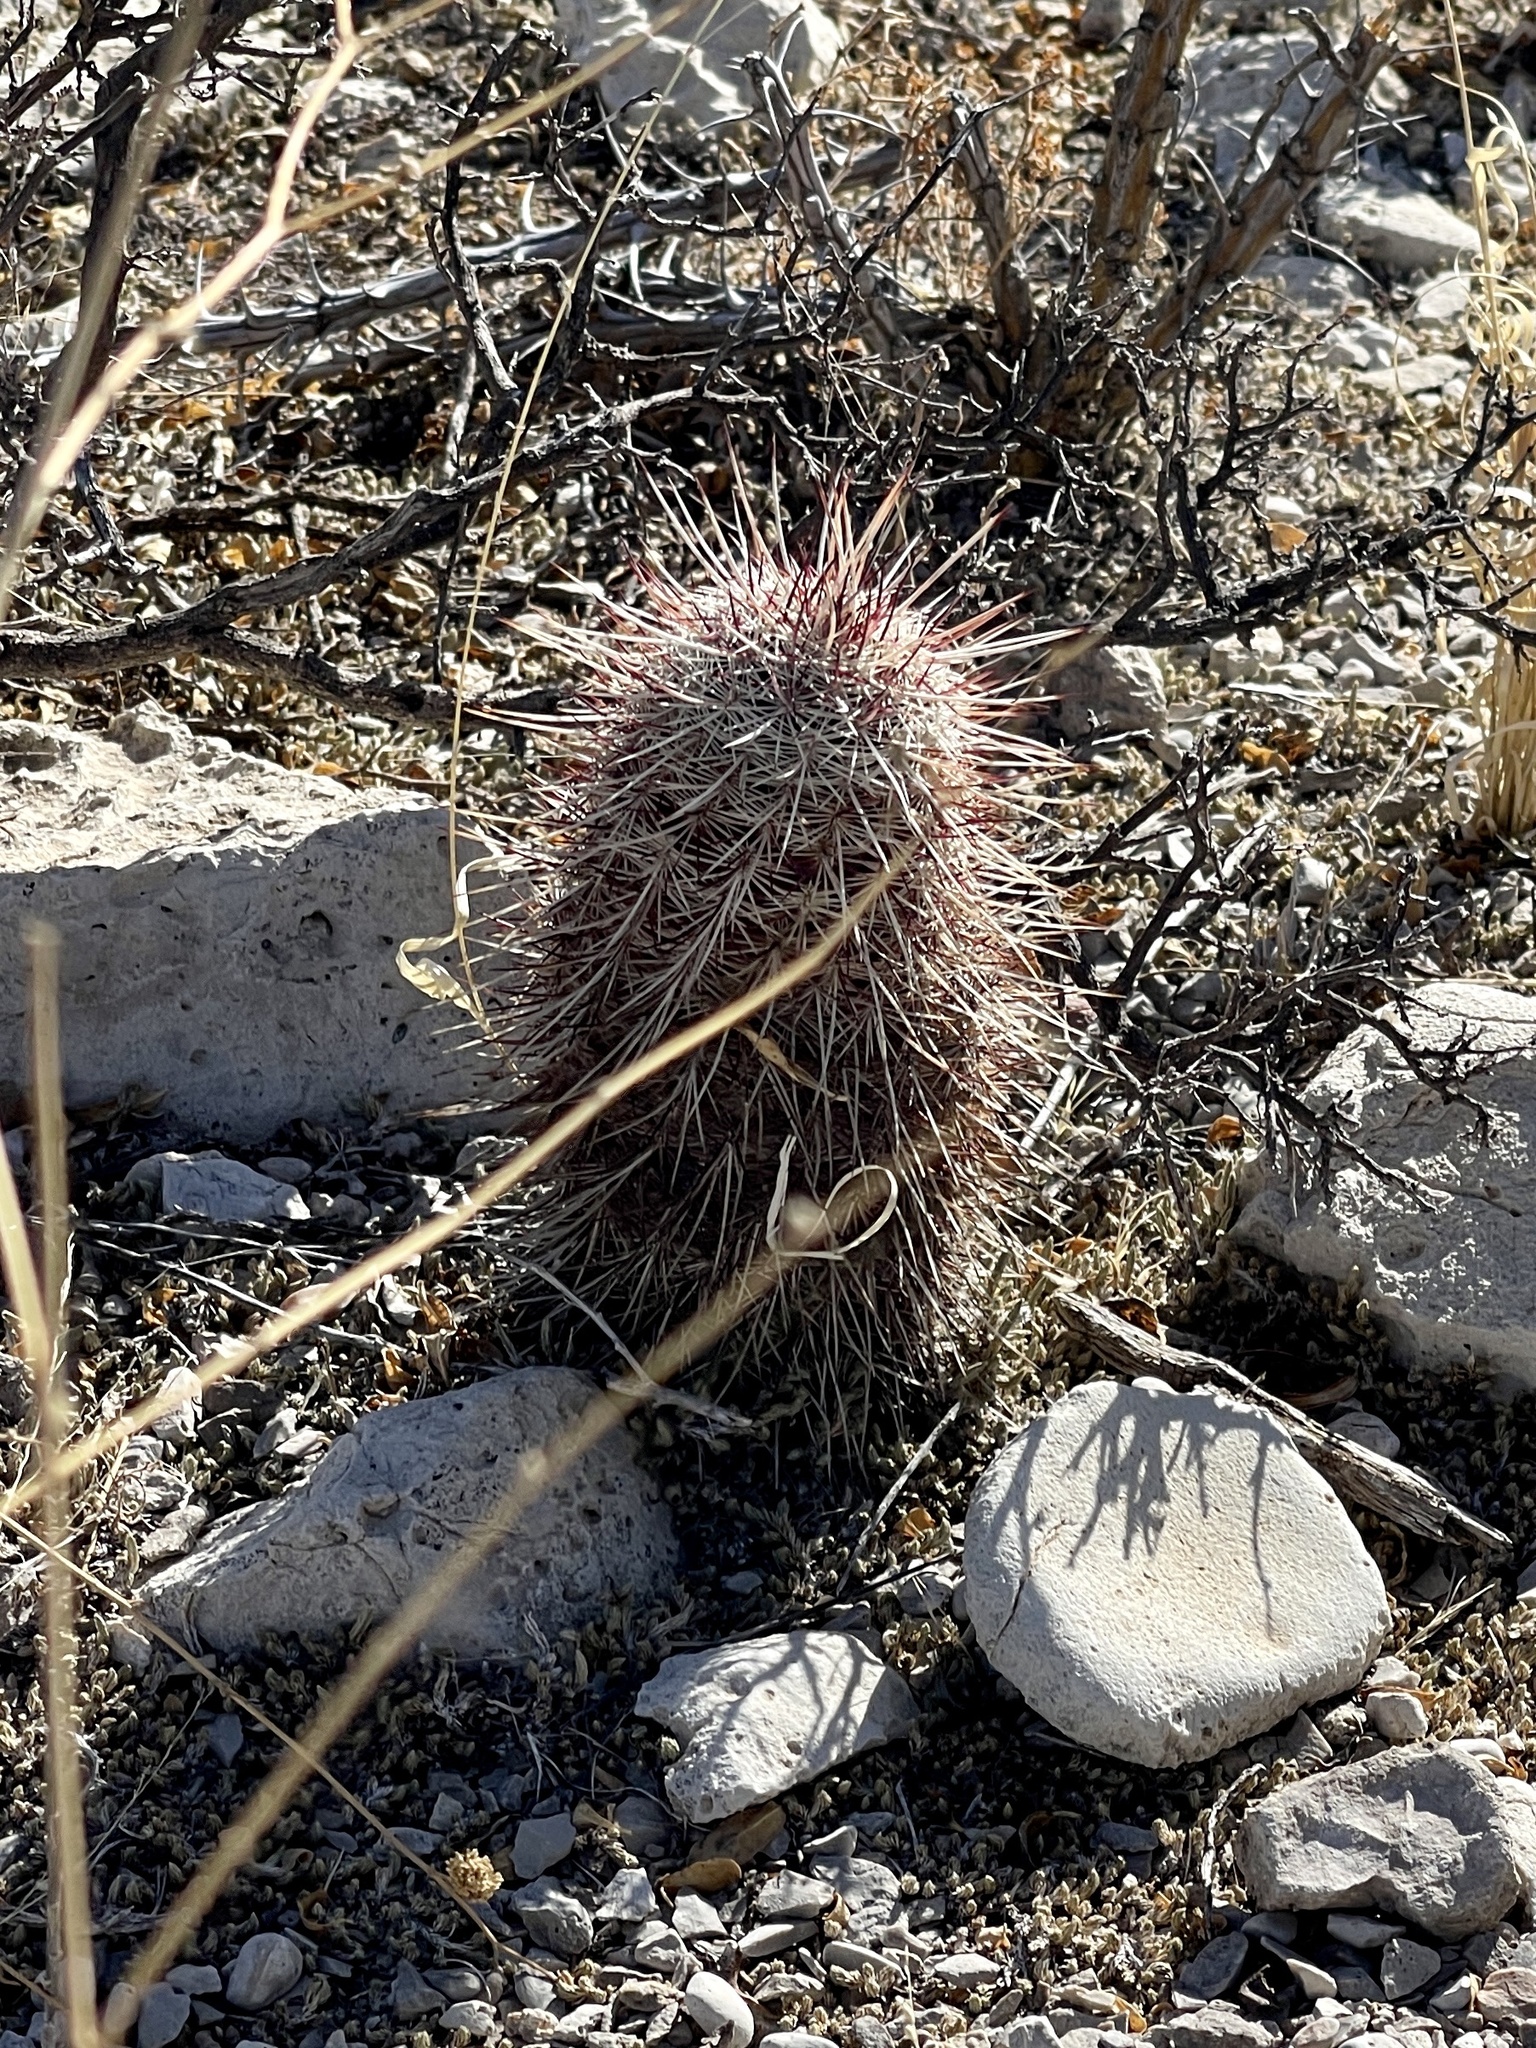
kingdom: Plantae
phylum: Tracheophyta
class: Magnoliopsida
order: Caryophyllales
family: Cactaceae
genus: Echinocereus
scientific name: Echinocereus viridiflorus
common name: Nylon hedgehog cactus
